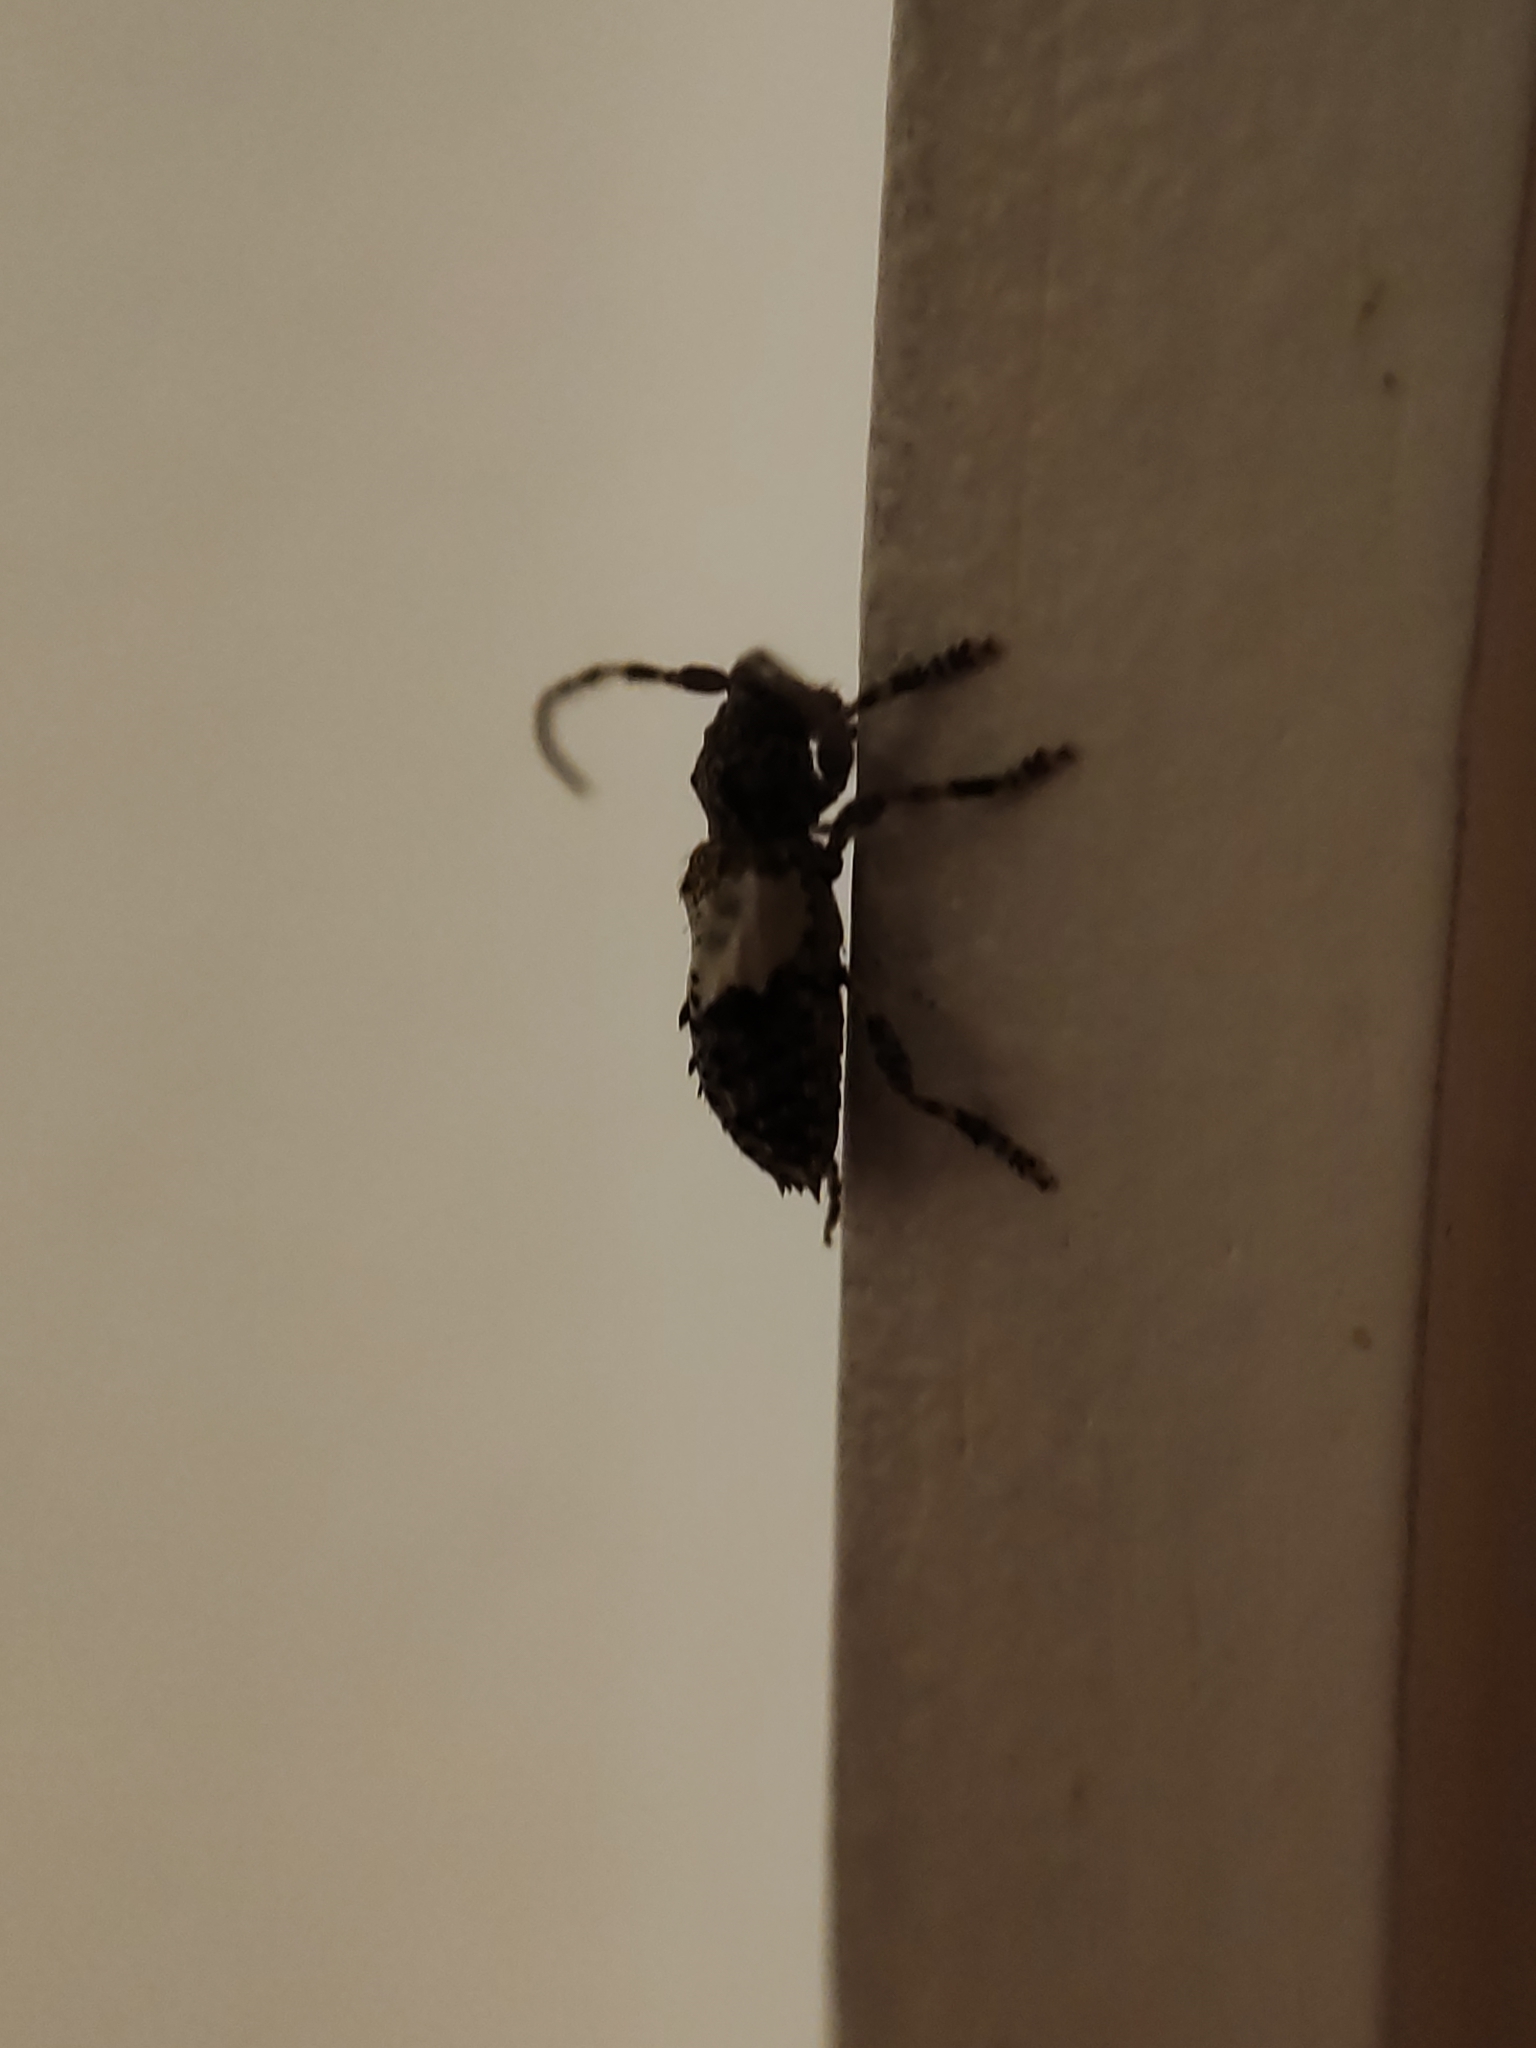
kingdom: Animalia
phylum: Arthropoda
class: Insecta
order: Coleoptera
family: Cerambycidae
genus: Pogonocherus
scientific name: Pogonocherus hispidulus
